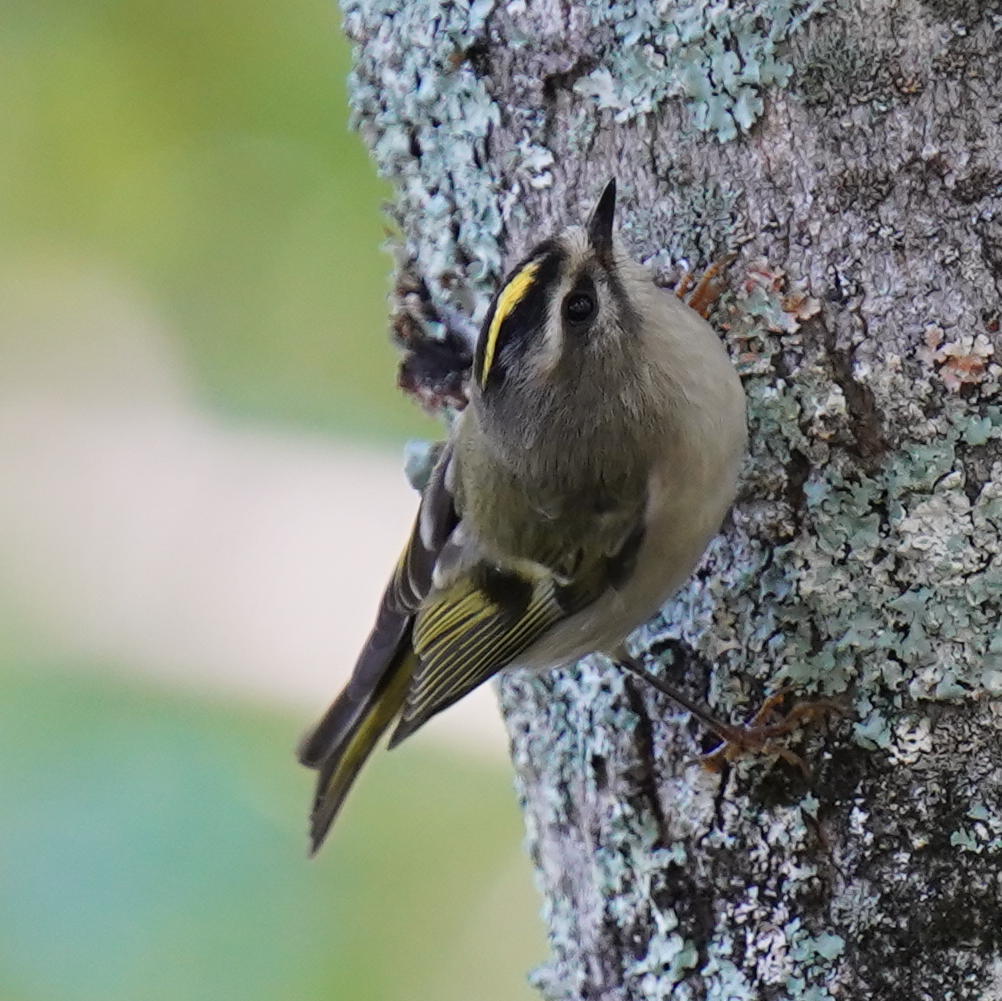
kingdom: Animalia
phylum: Chordata
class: Aves
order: Passeriformes
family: Regulidae
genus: Regulus
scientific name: Regulus satrapa
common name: Golden-crowned kinglet
